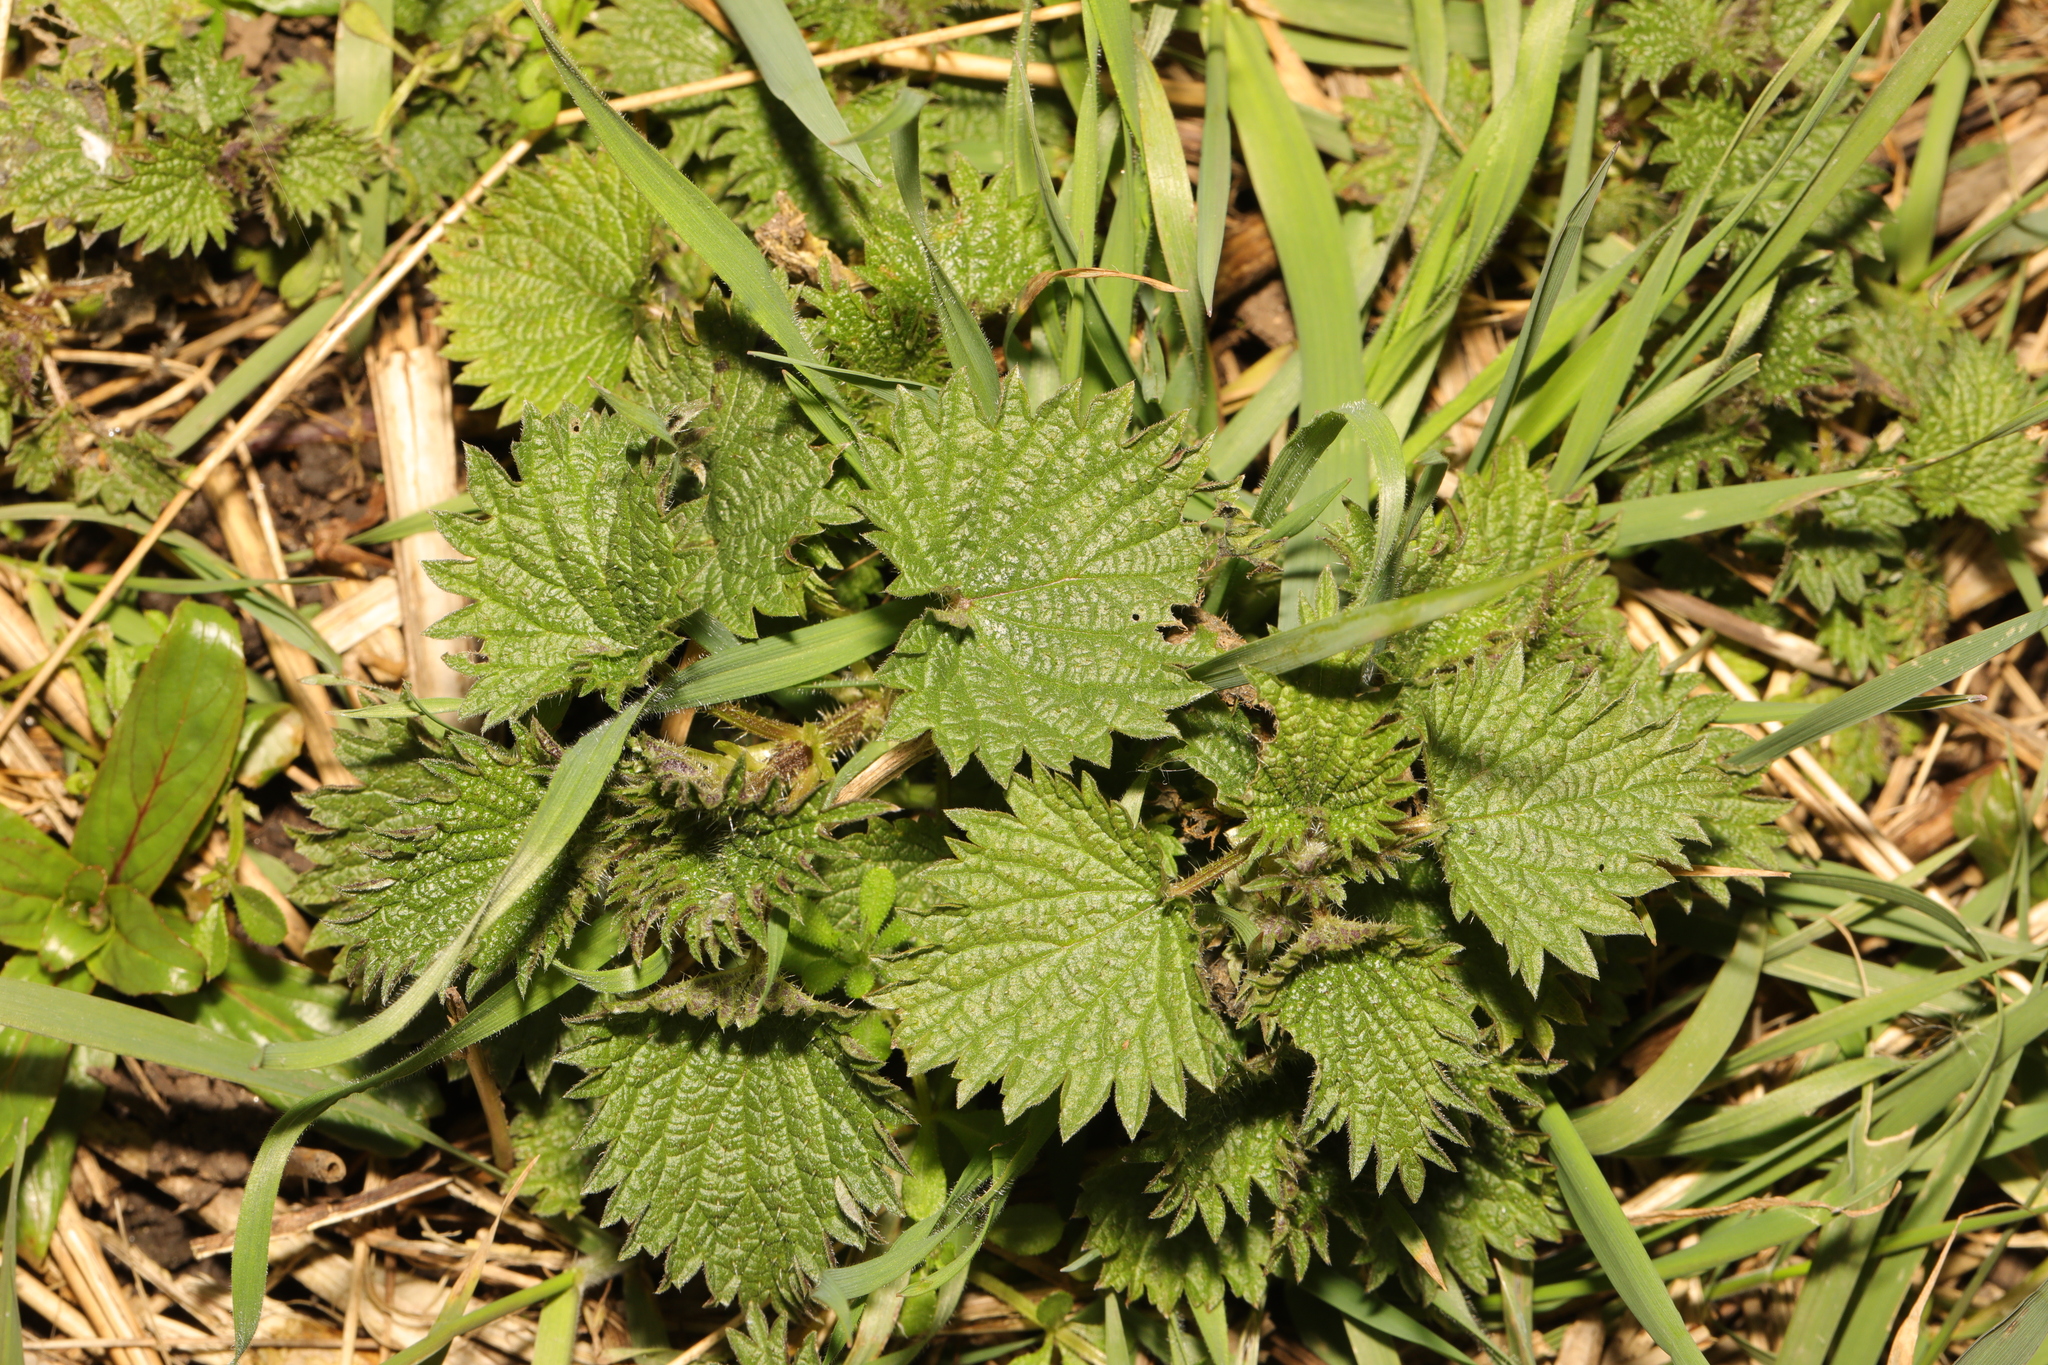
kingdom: Plantae
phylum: Tracheophyta
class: Magnoliopsida
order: Rosales
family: Urticaceae
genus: Urtica
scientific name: Urtica dioica
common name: Common nettle
